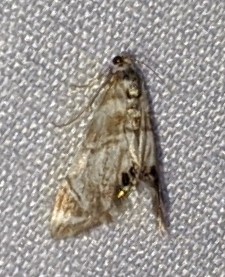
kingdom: Animalia
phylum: Arthropoda
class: Insecta
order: Lepidoptera
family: Crambidae
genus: Eoparargyractis
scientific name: Eoparargyractis plevie
